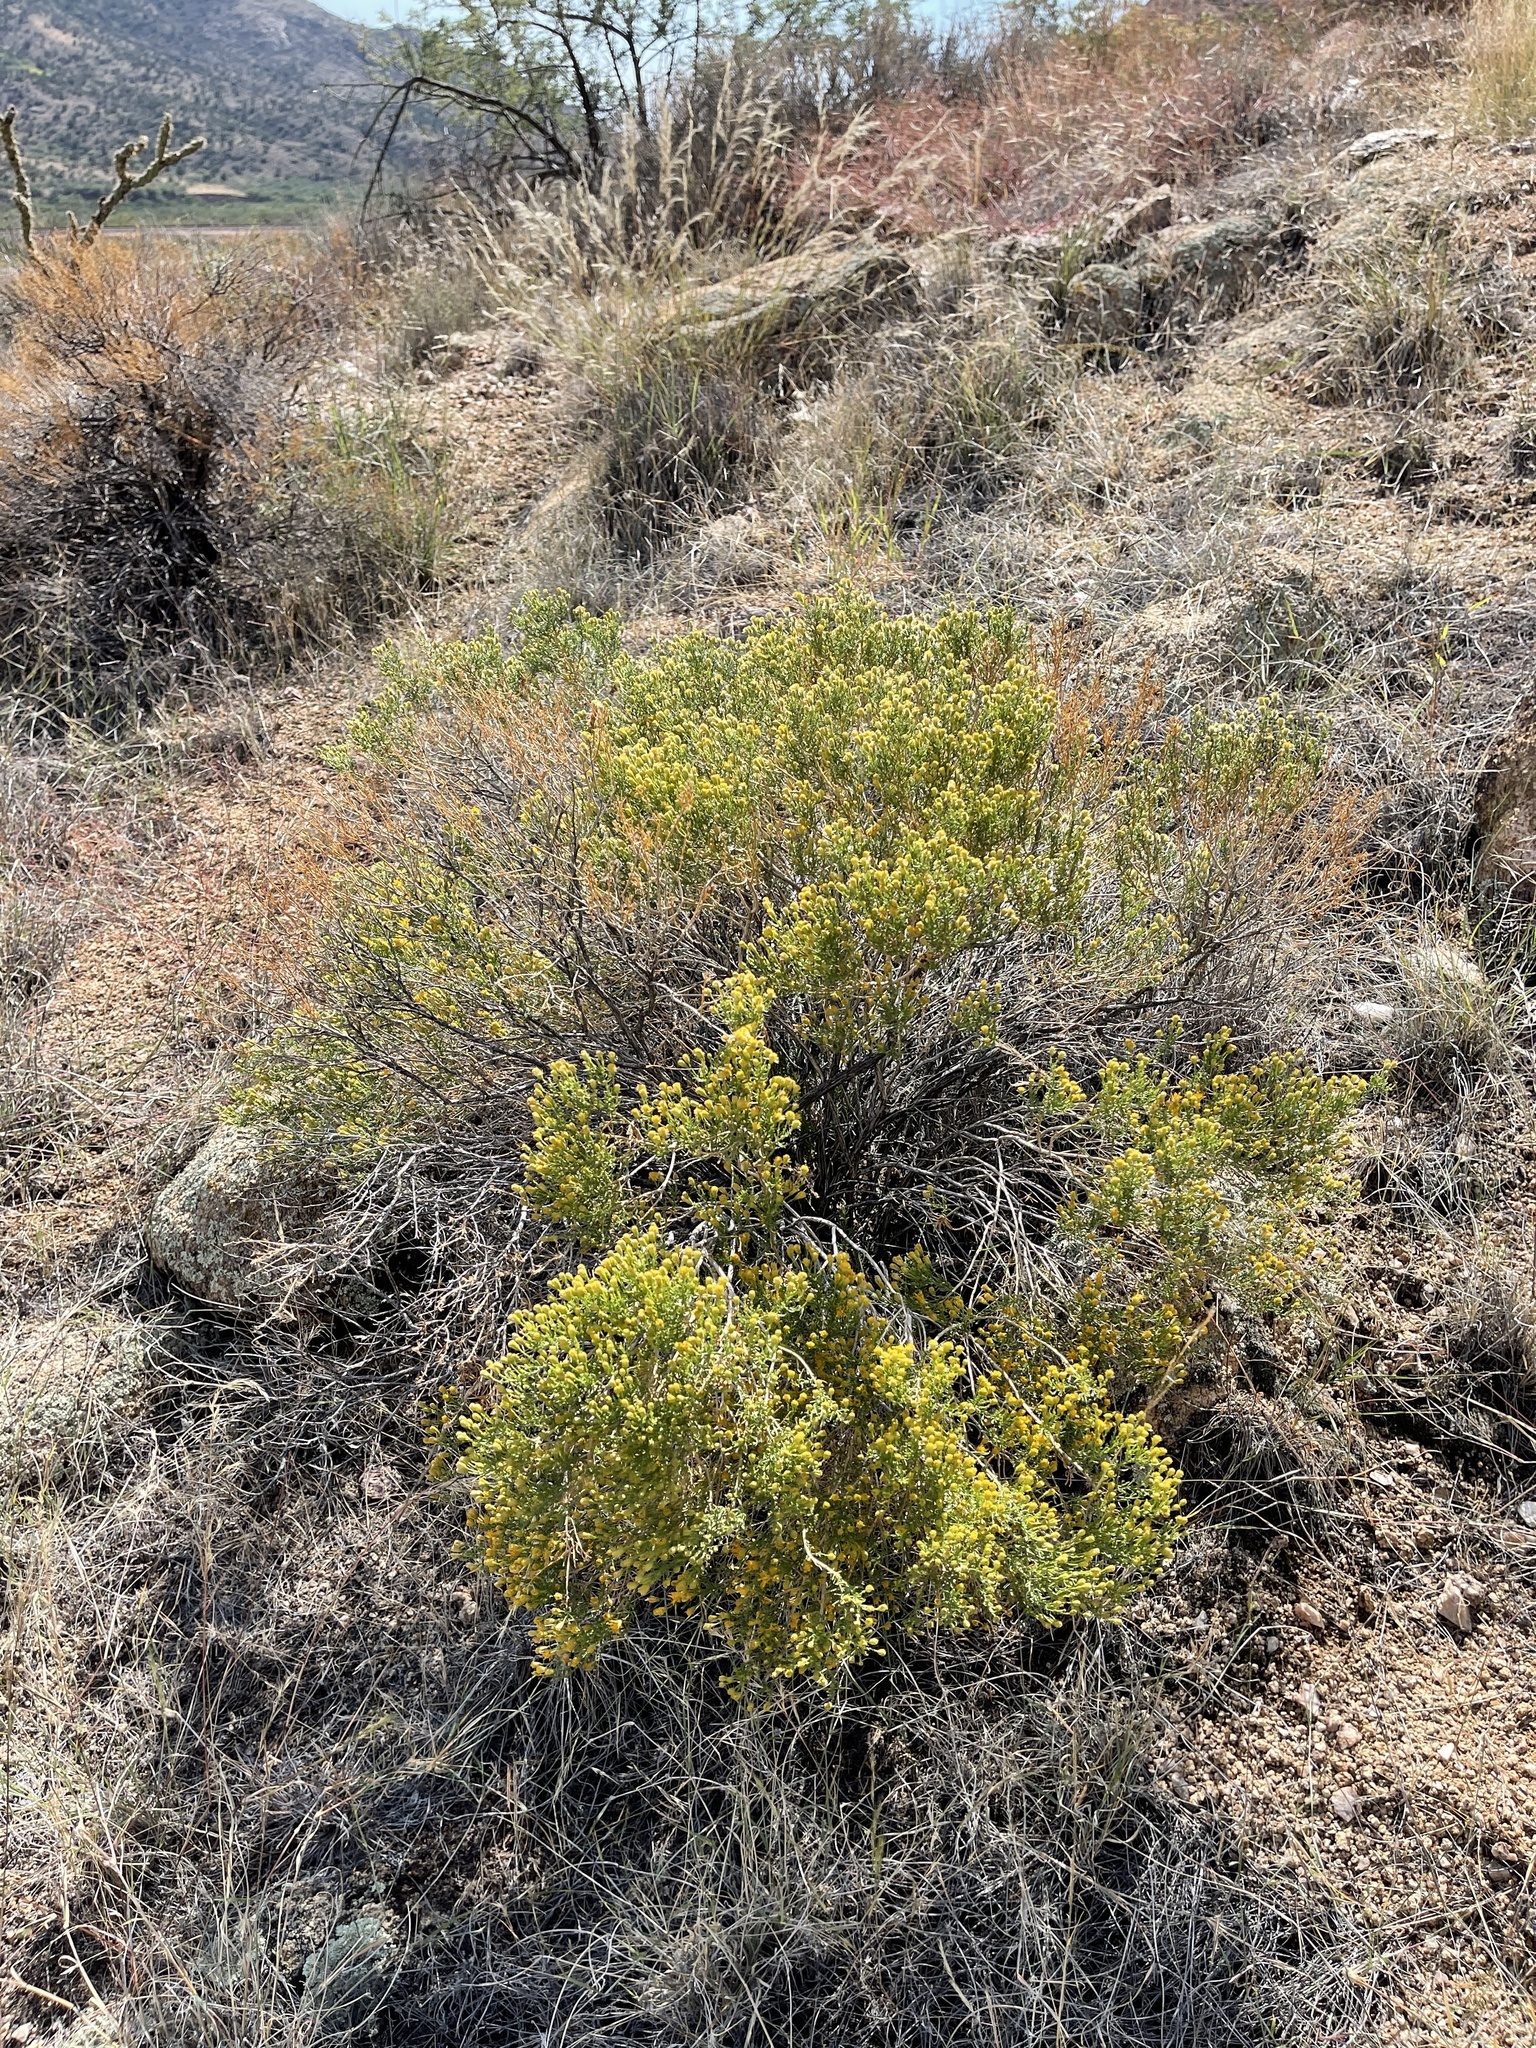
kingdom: Plantae
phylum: Tracheophyta
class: Magnoliopsida
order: Asterales
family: Asteraceae
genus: Ericameria
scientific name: Ericameria laricifolia
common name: Turpentine-bush
